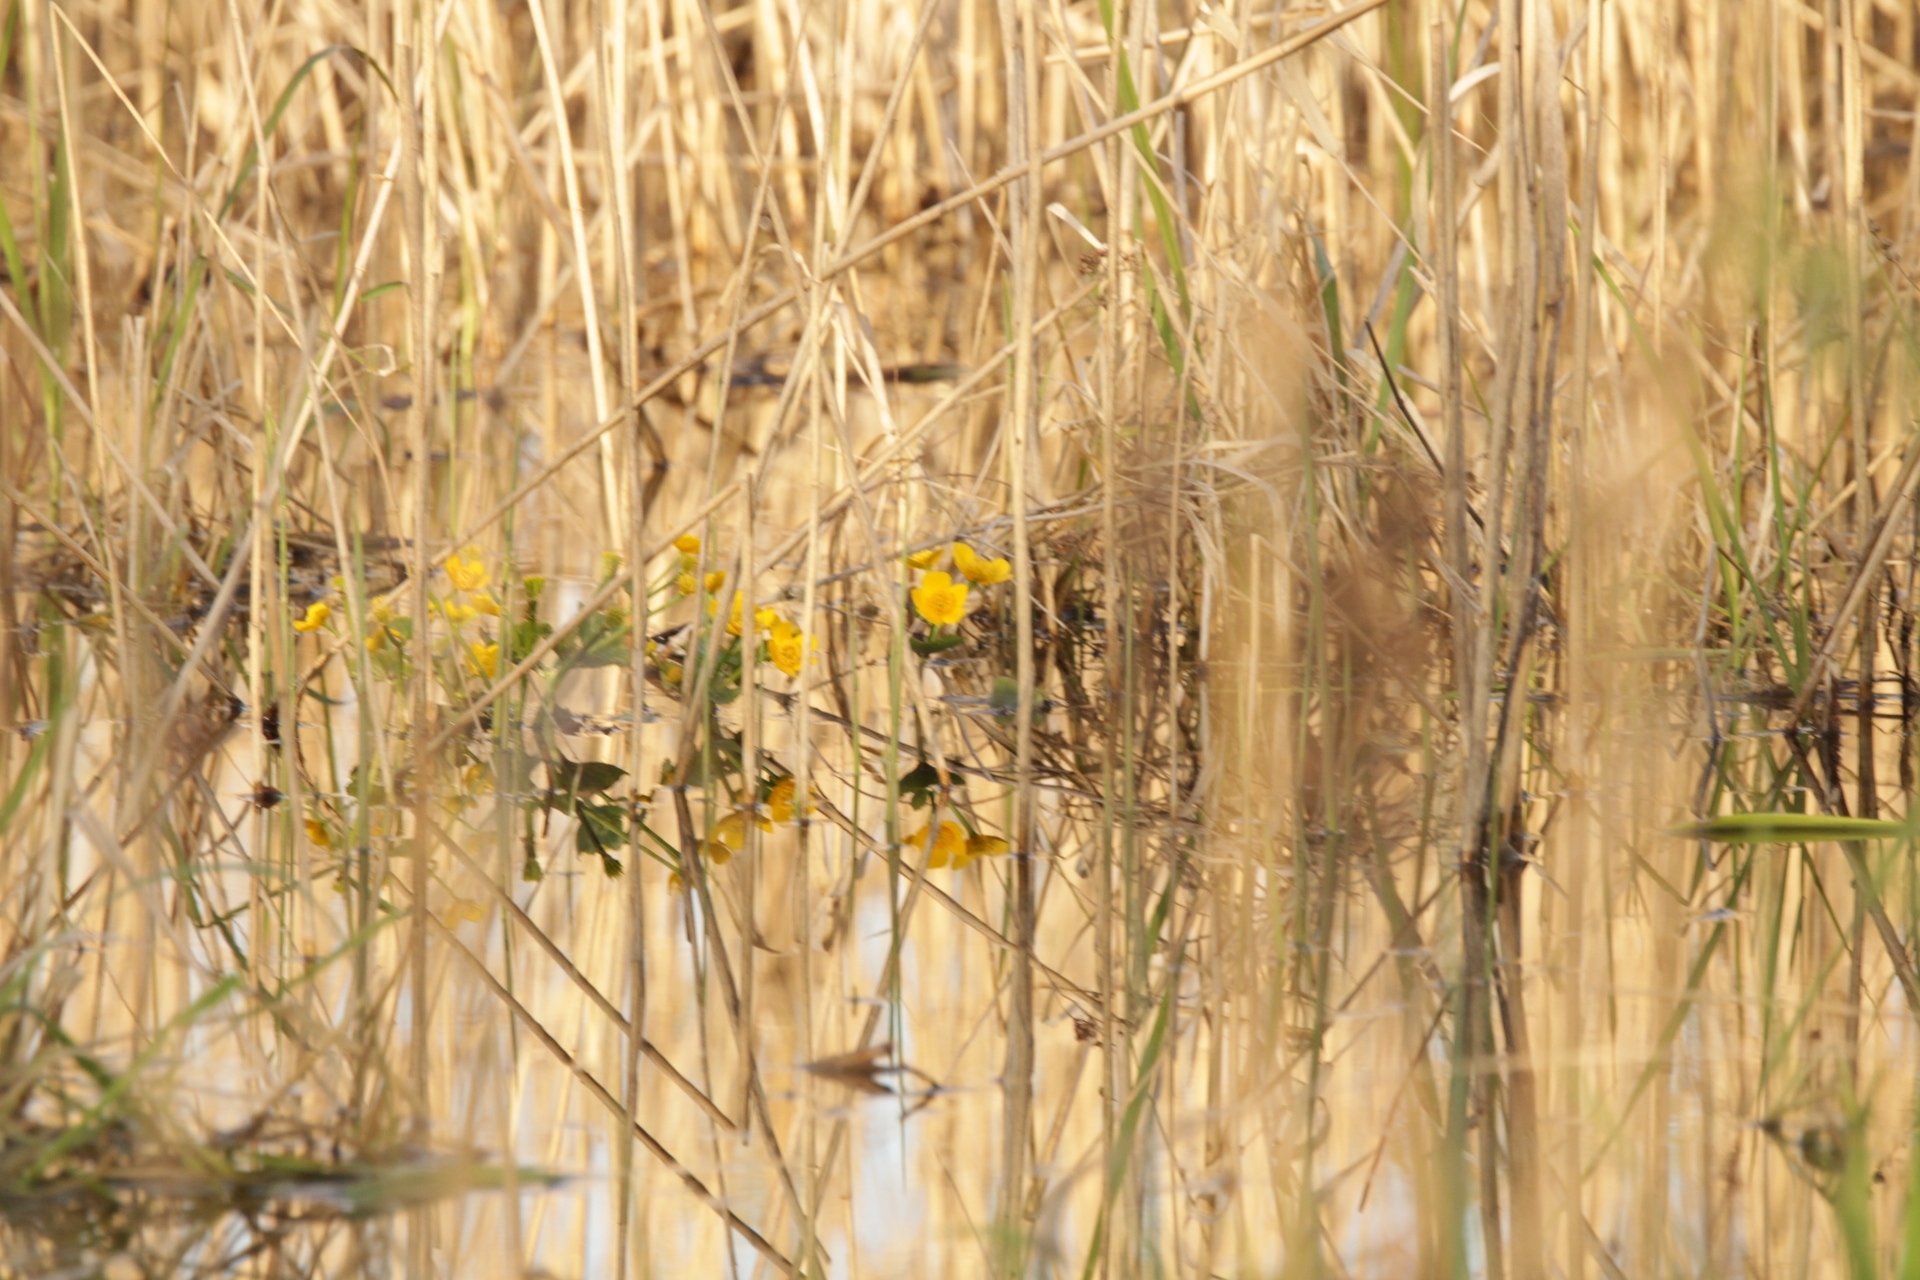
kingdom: Plantae
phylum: Tracheophyta
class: Magnoliopsida
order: Ranunculales
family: Ranunculaceae
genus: Caltha
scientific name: Caltha palustris
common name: Marsh marigold
